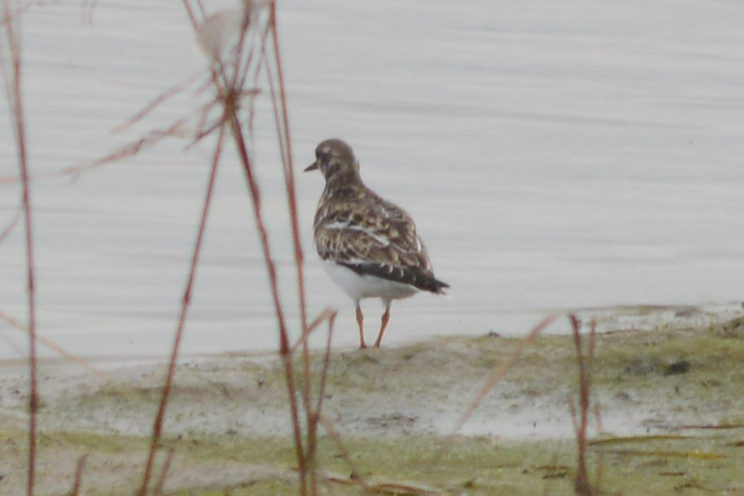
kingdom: Animalia
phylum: Chordata
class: Aves
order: Charadriiformes
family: Scolopacidae
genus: Arenaria
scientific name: Arenaria interpres
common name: Ruddy turnstone
